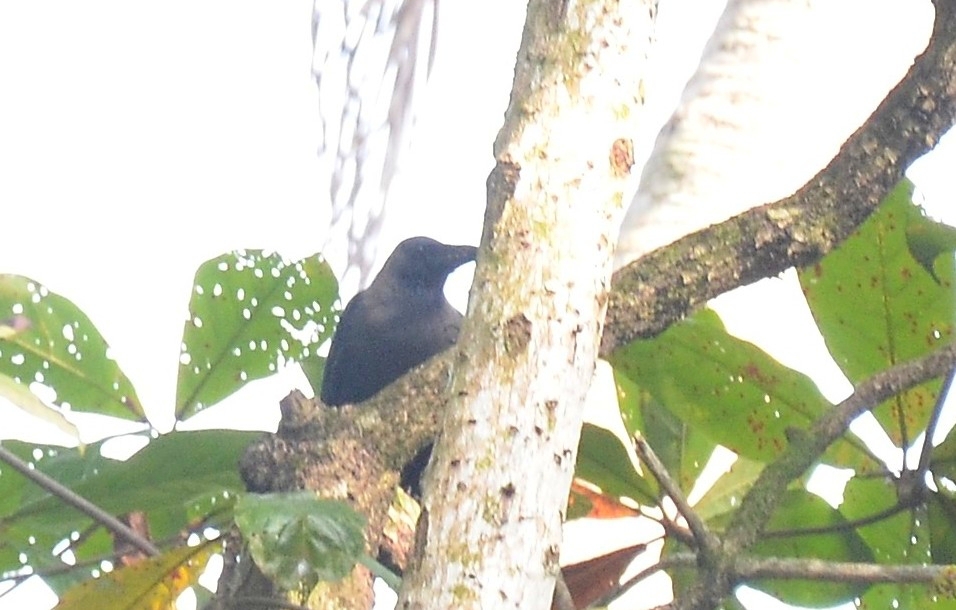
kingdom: Animalia
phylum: Chordata
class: Aves
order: Passeriformes
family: Corvidae
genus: Corvus
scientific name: Corvus splendens
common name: House crow
